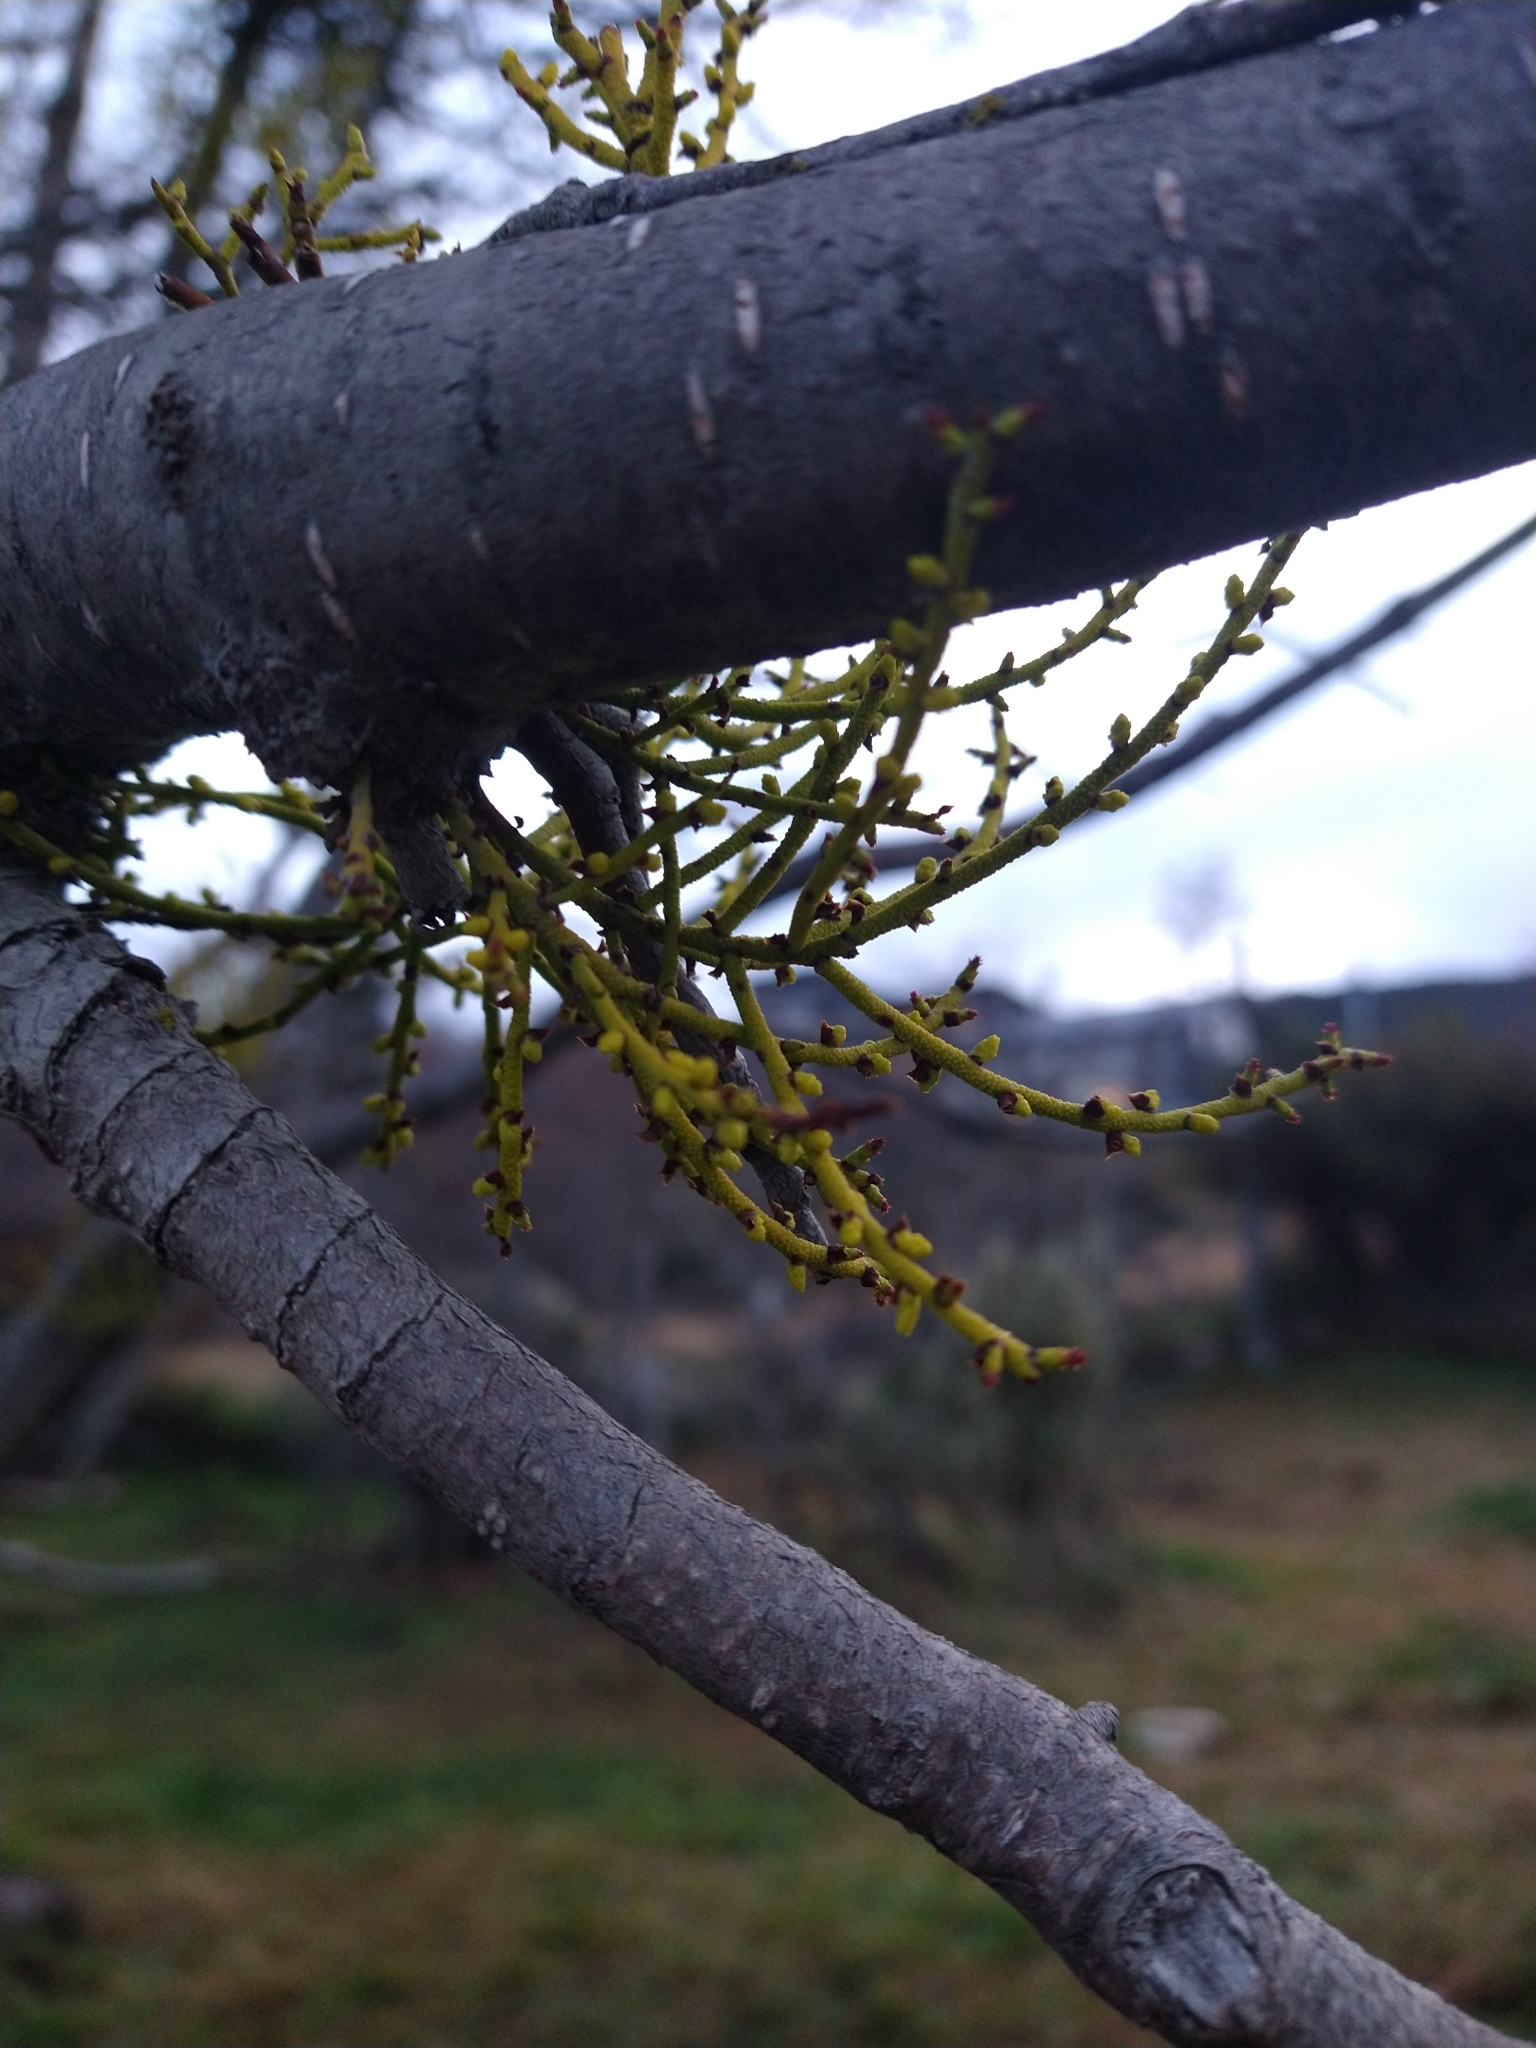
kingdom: Plantae
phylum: Tracheophyta
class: Magnoliopsida
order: Santalales
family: Misodendraceae
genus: Misodendrum
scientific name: Misodendrum punctulatum
